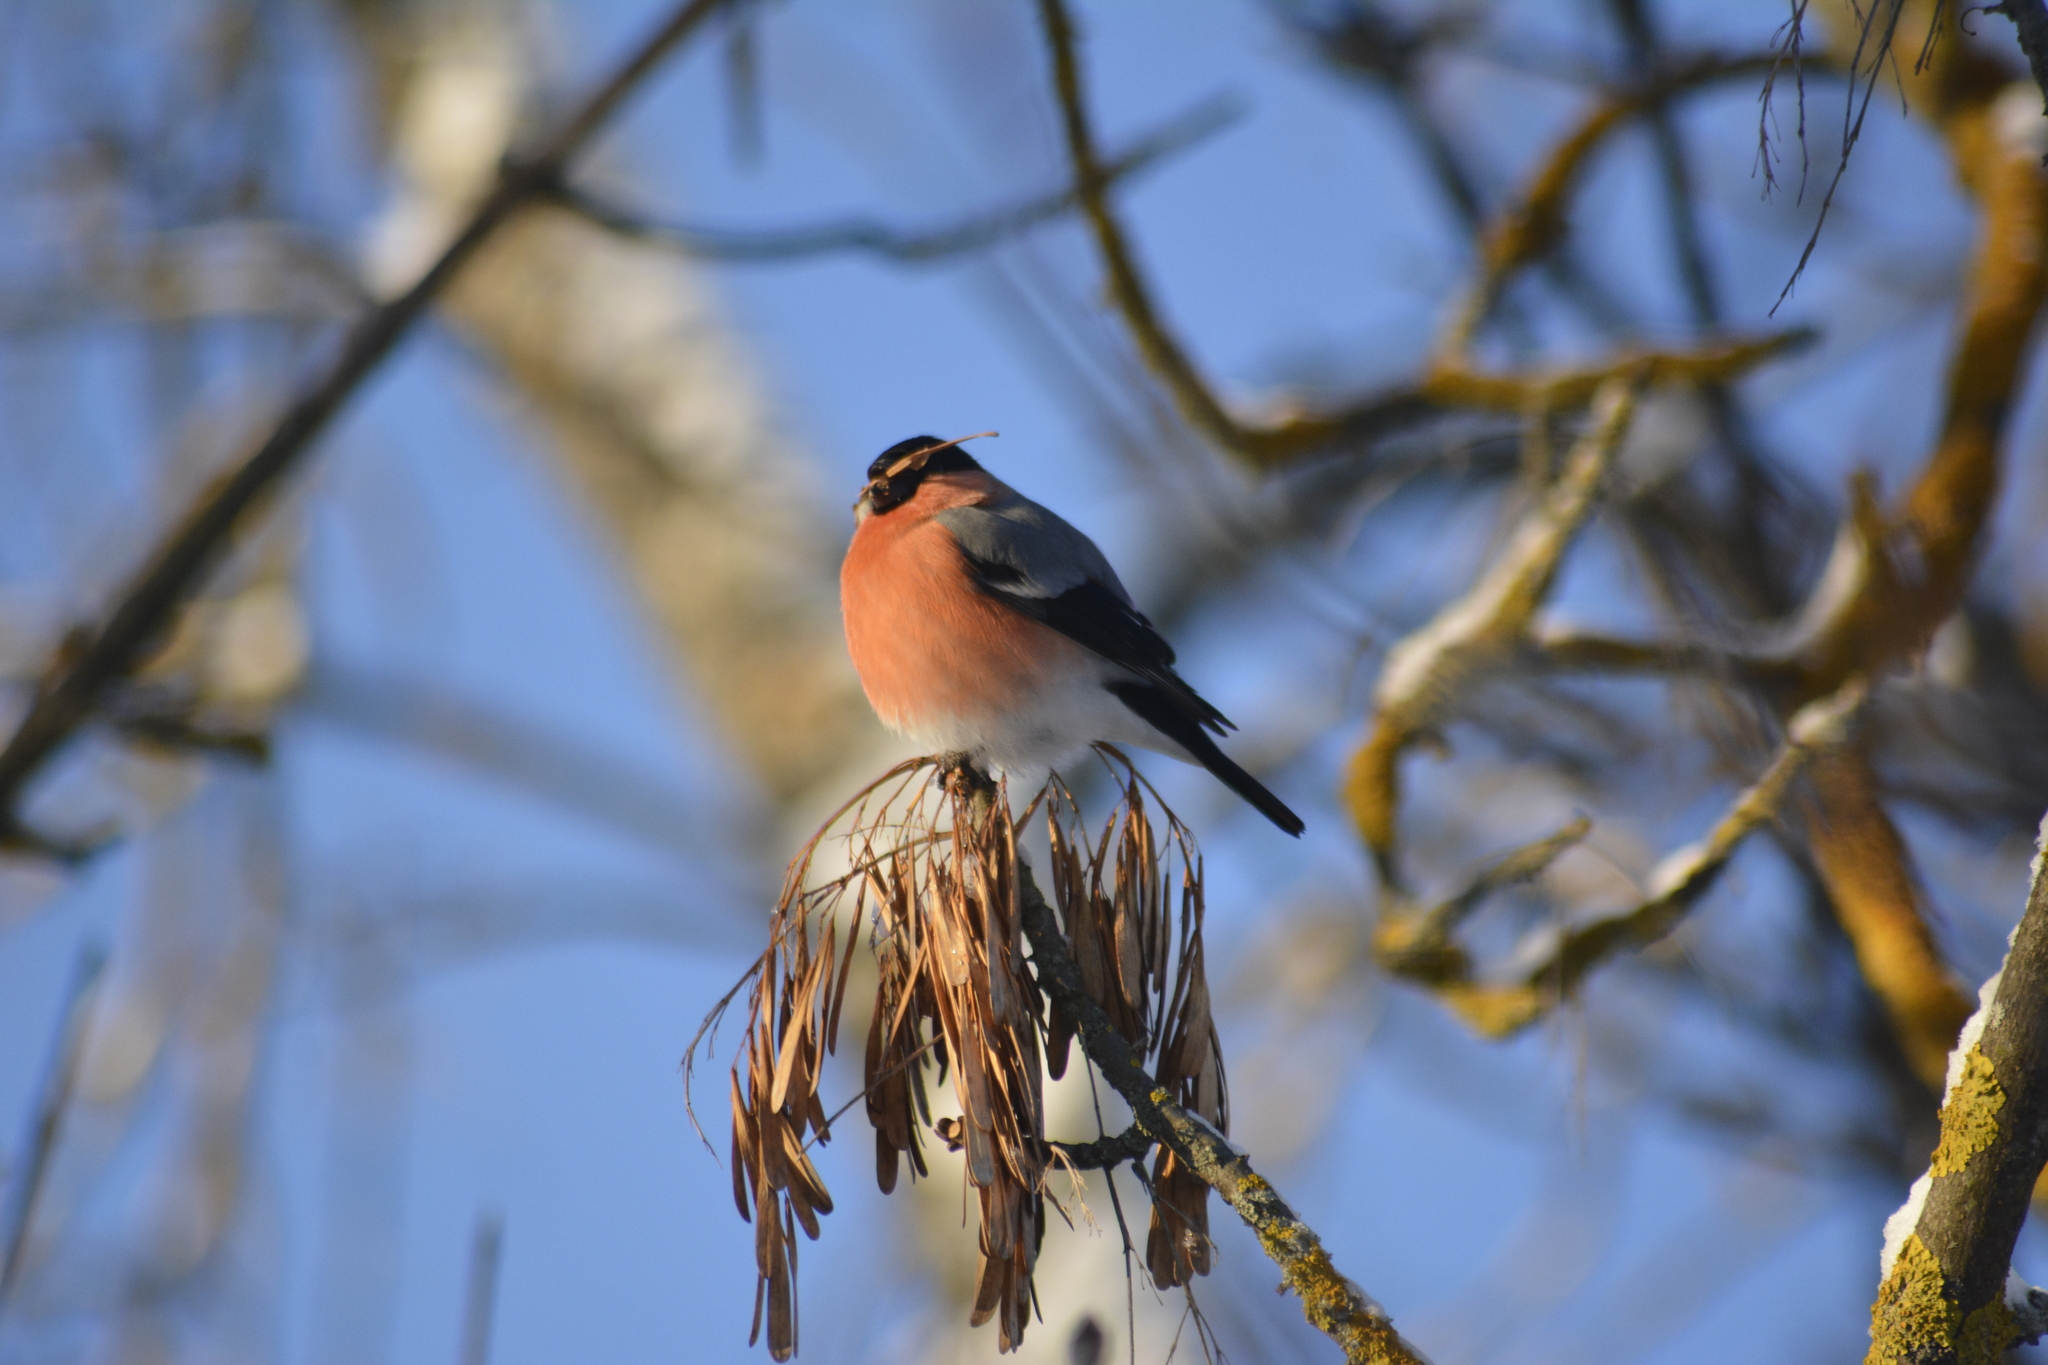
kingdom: Animalia
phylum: Chordata
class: Aves
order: Passeriformes
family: Fringillidae
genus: Pyrrhula
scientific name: Pyrrhula pyrrhula
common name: Eurasian bullfinch
